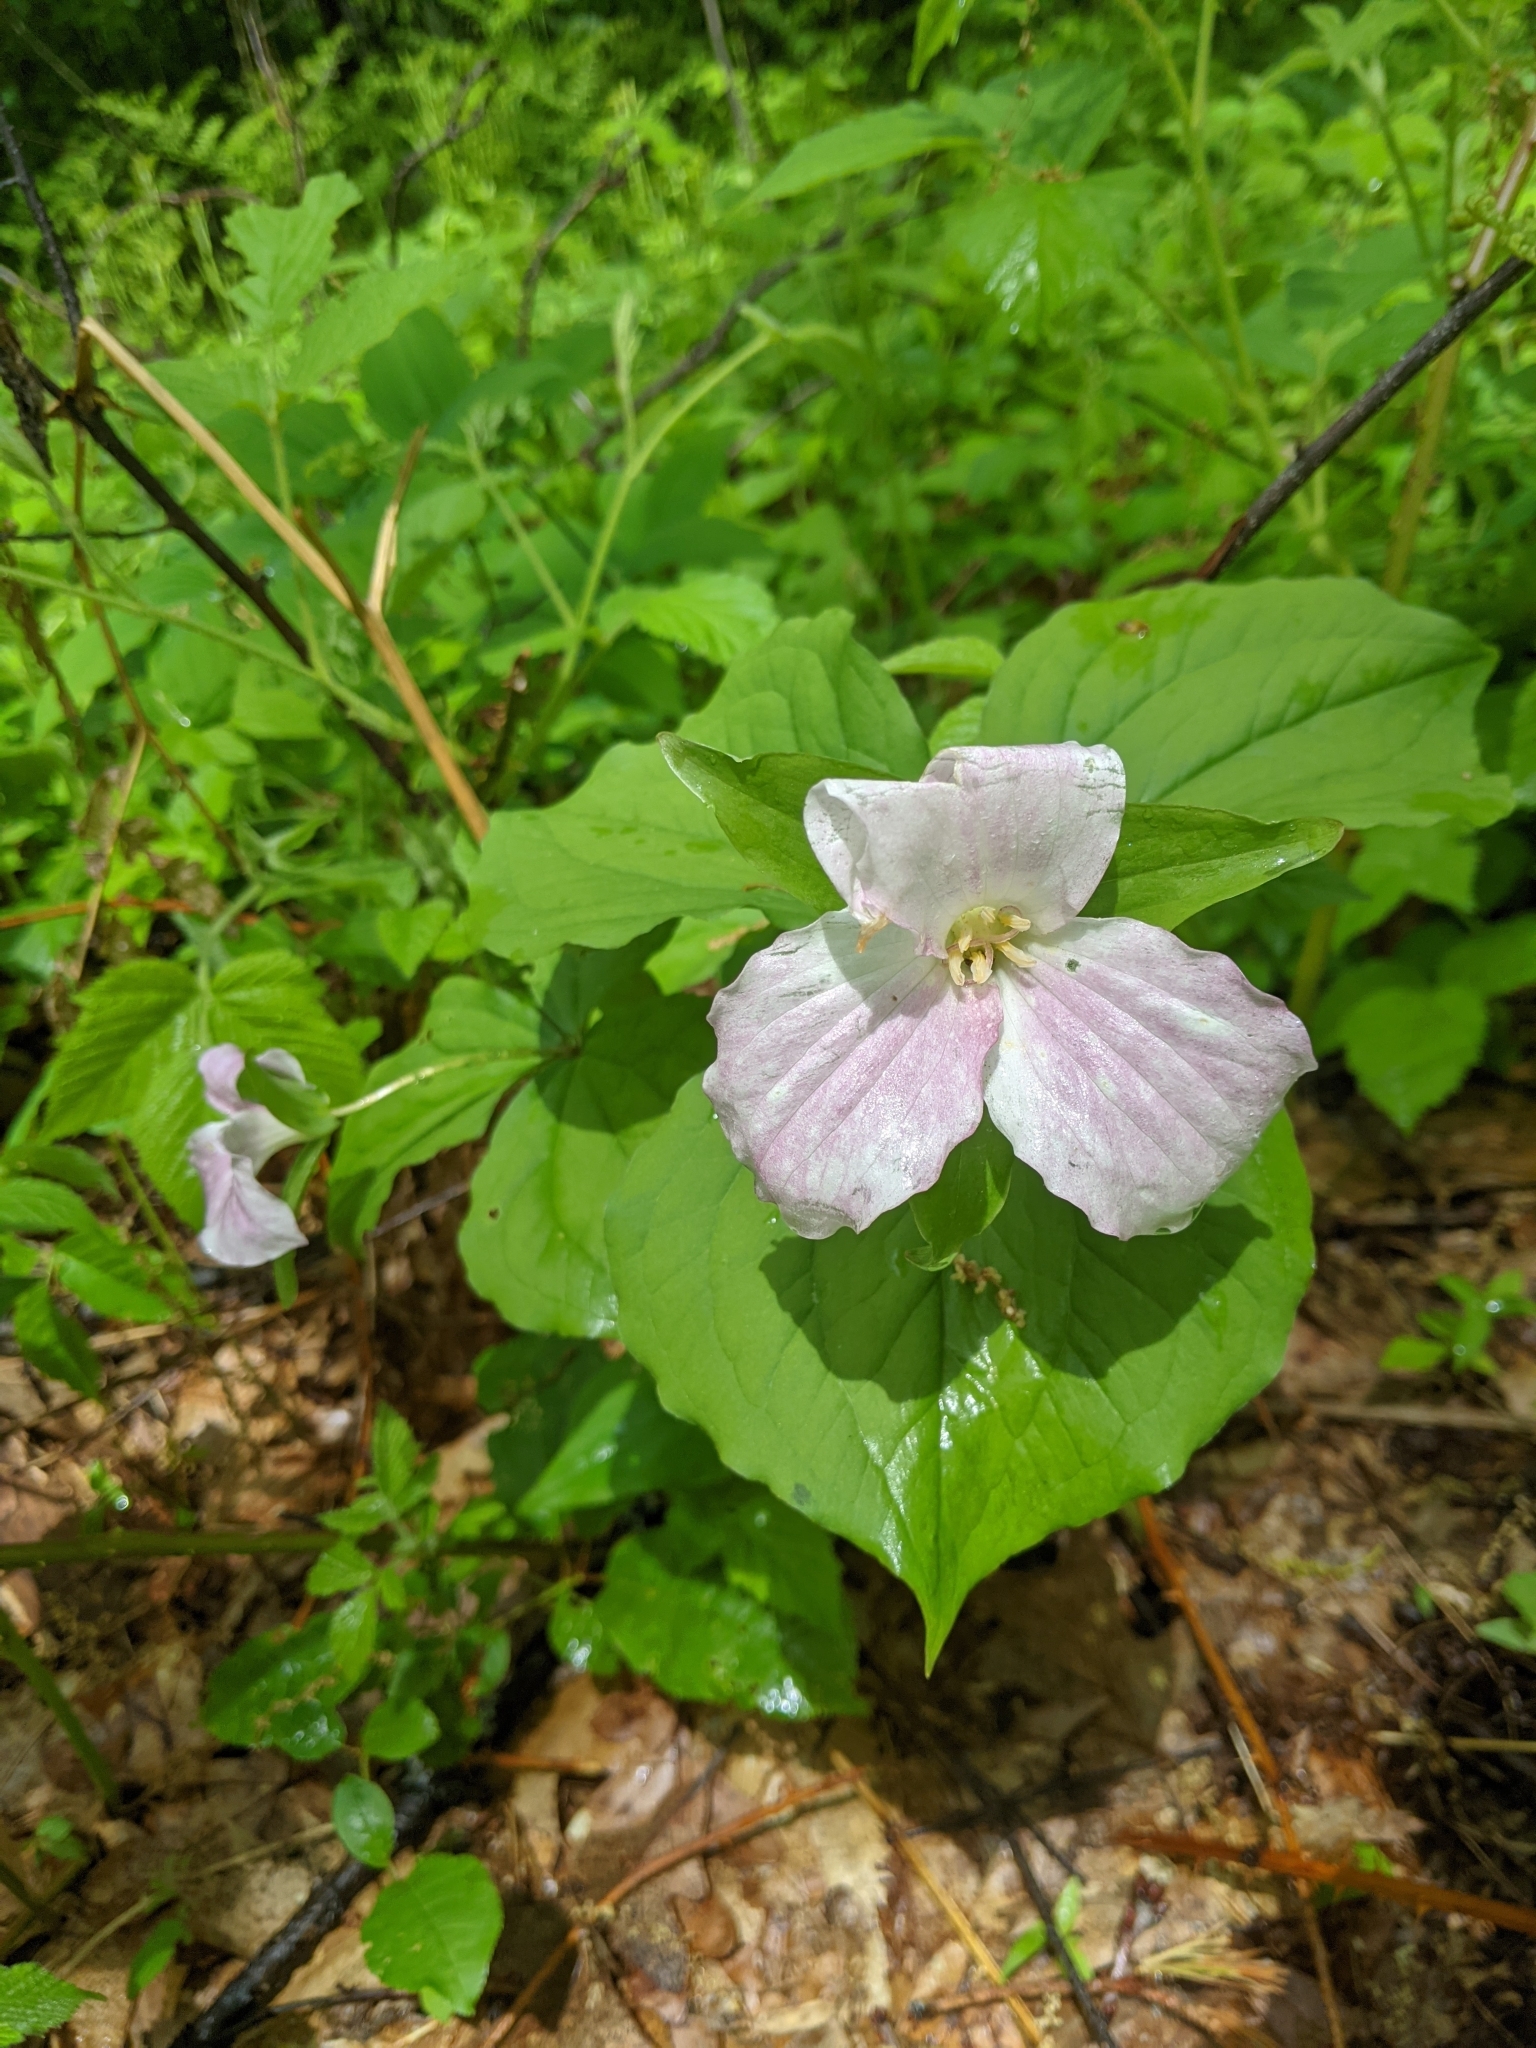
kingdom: Plantae
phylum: Tracheophyta
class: Liliopsida
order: Liliales
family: Melanthiaceae
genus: Trillium
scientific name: Trillium grandiflorum
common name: Great white trillium
